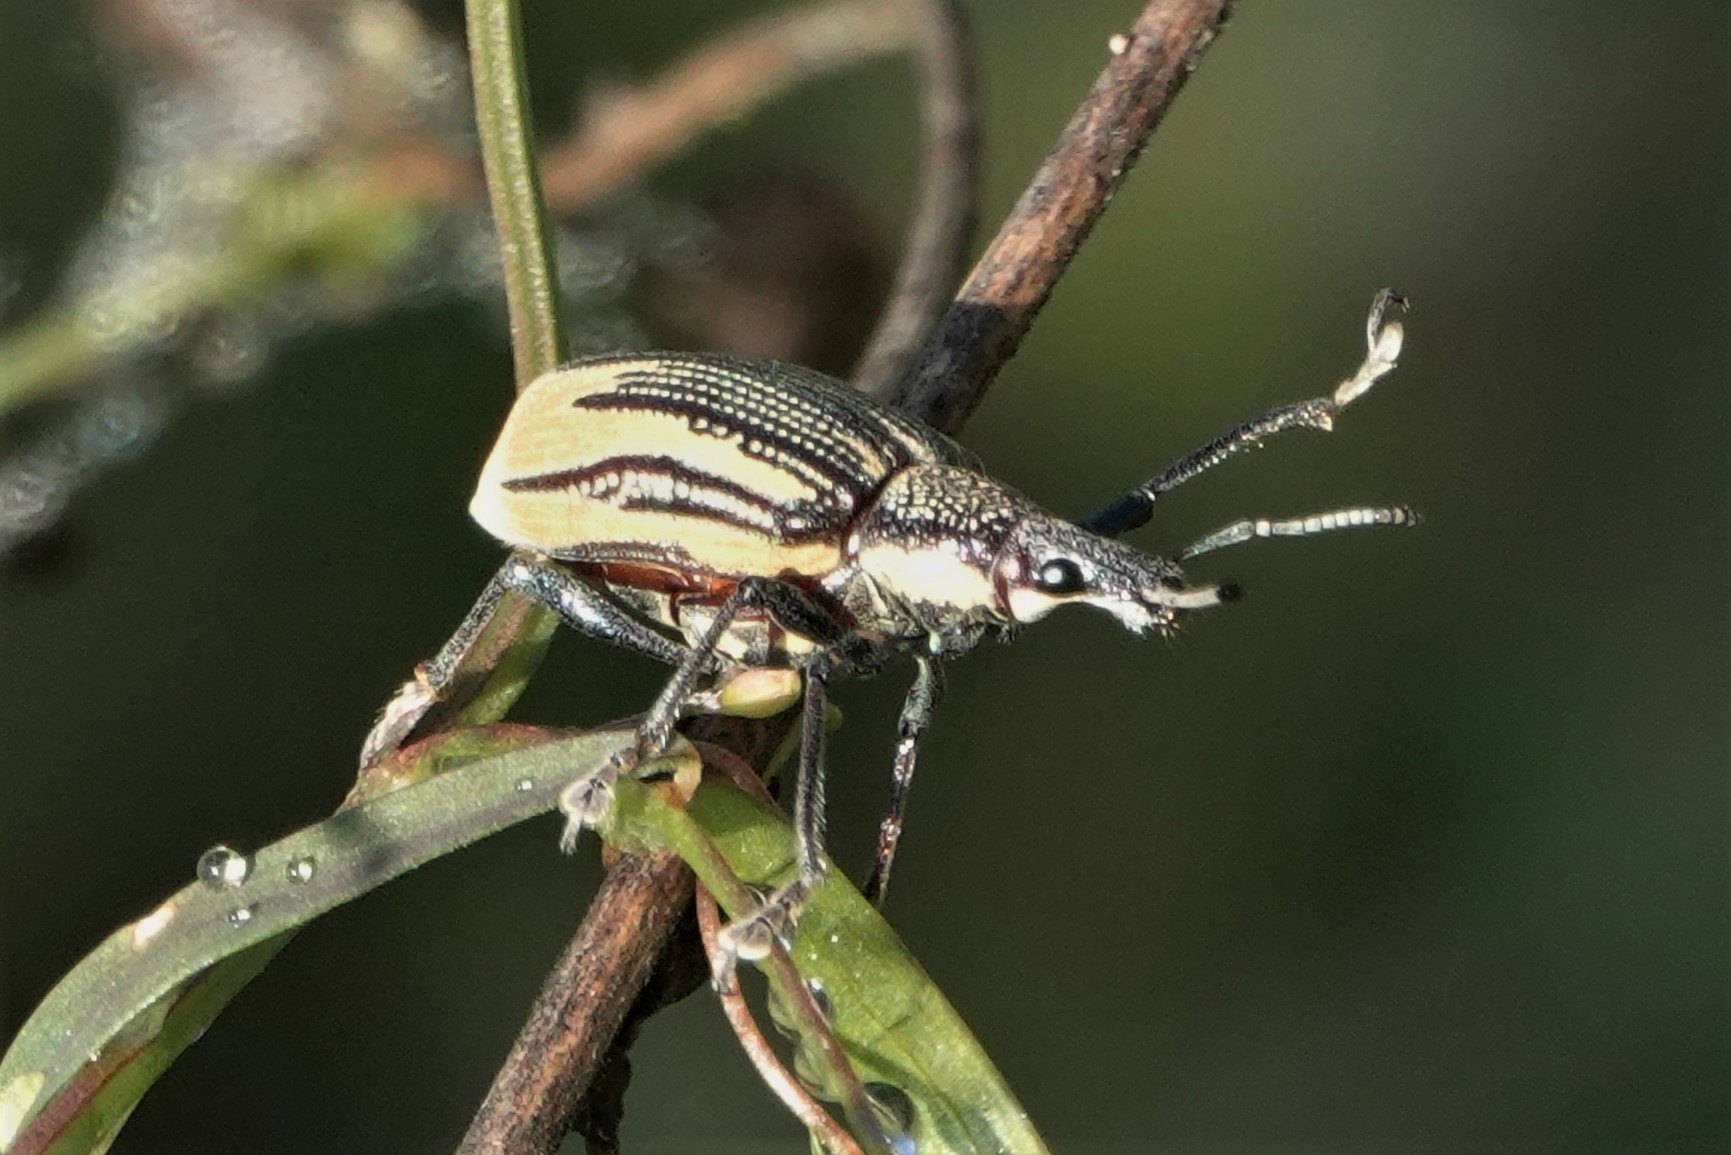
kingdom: Animalia
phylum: Arthropoda
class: Insecta
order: Coleoptera
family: Curculionidae
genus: Diaprepes
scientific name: Diaprepes abbreviatus
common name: Root weevil
